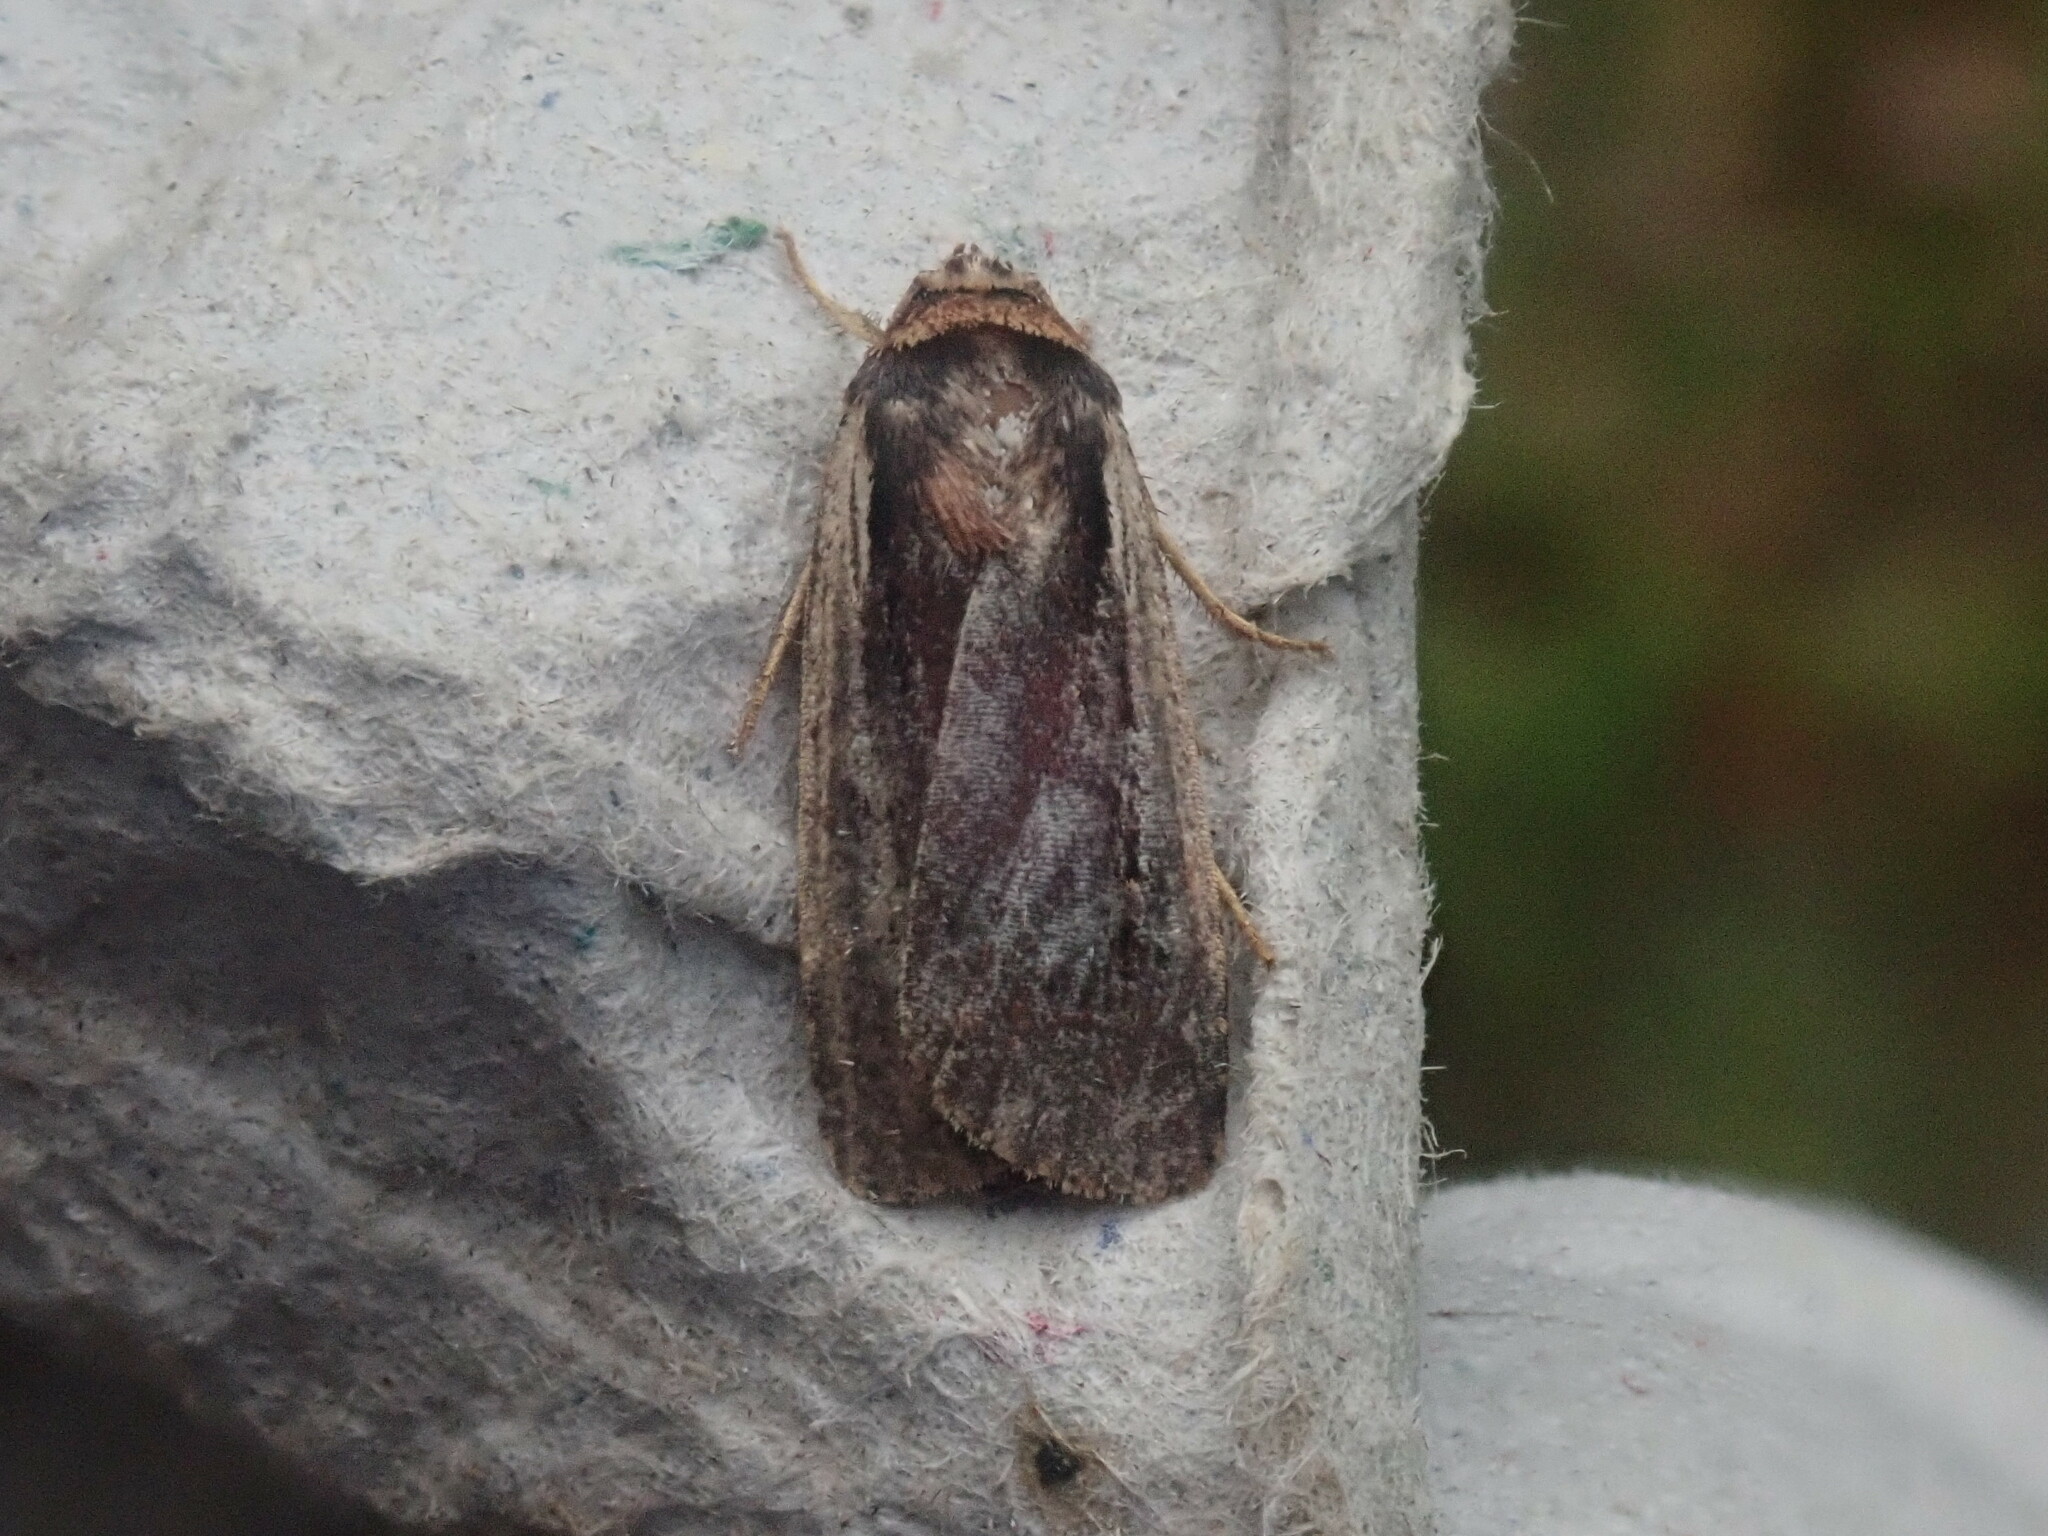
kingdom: Animalia
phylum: Arthropoda
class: Insecta
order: Lepidoptera
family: Noctuidae
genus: Ochropleura
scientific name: Ochropleura implecta
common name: Flame-shouldered dart
